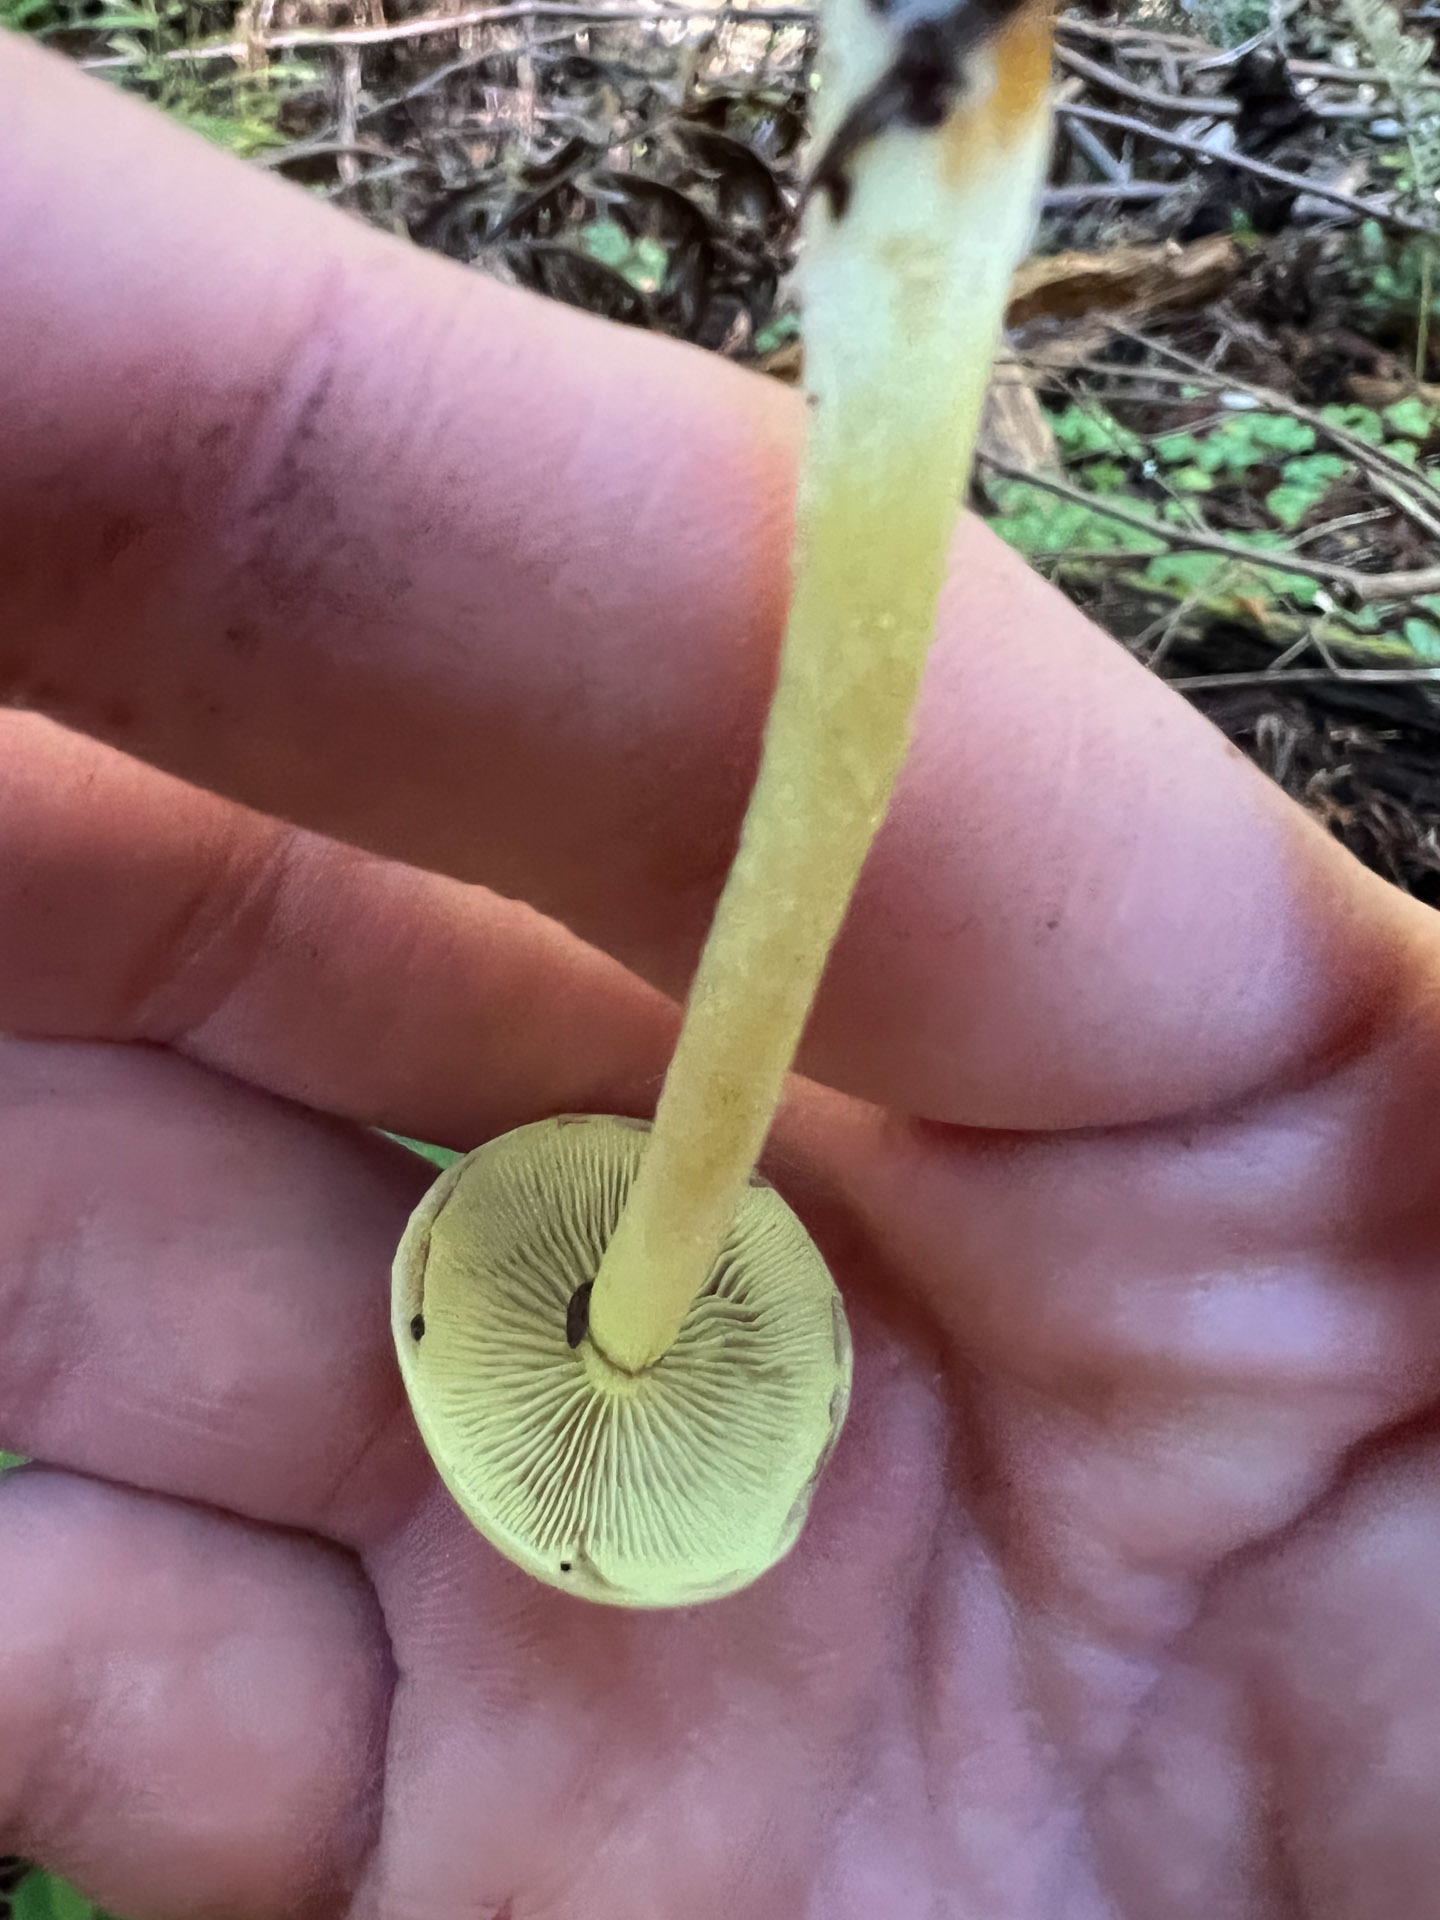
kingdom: Fungi
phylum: Basidiomycota
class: Agaricomycetes
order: Agaricales
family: Strophariaceae
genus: Hypholoma
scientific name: Hypholoma fasciculare
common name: Sulphur tuft
